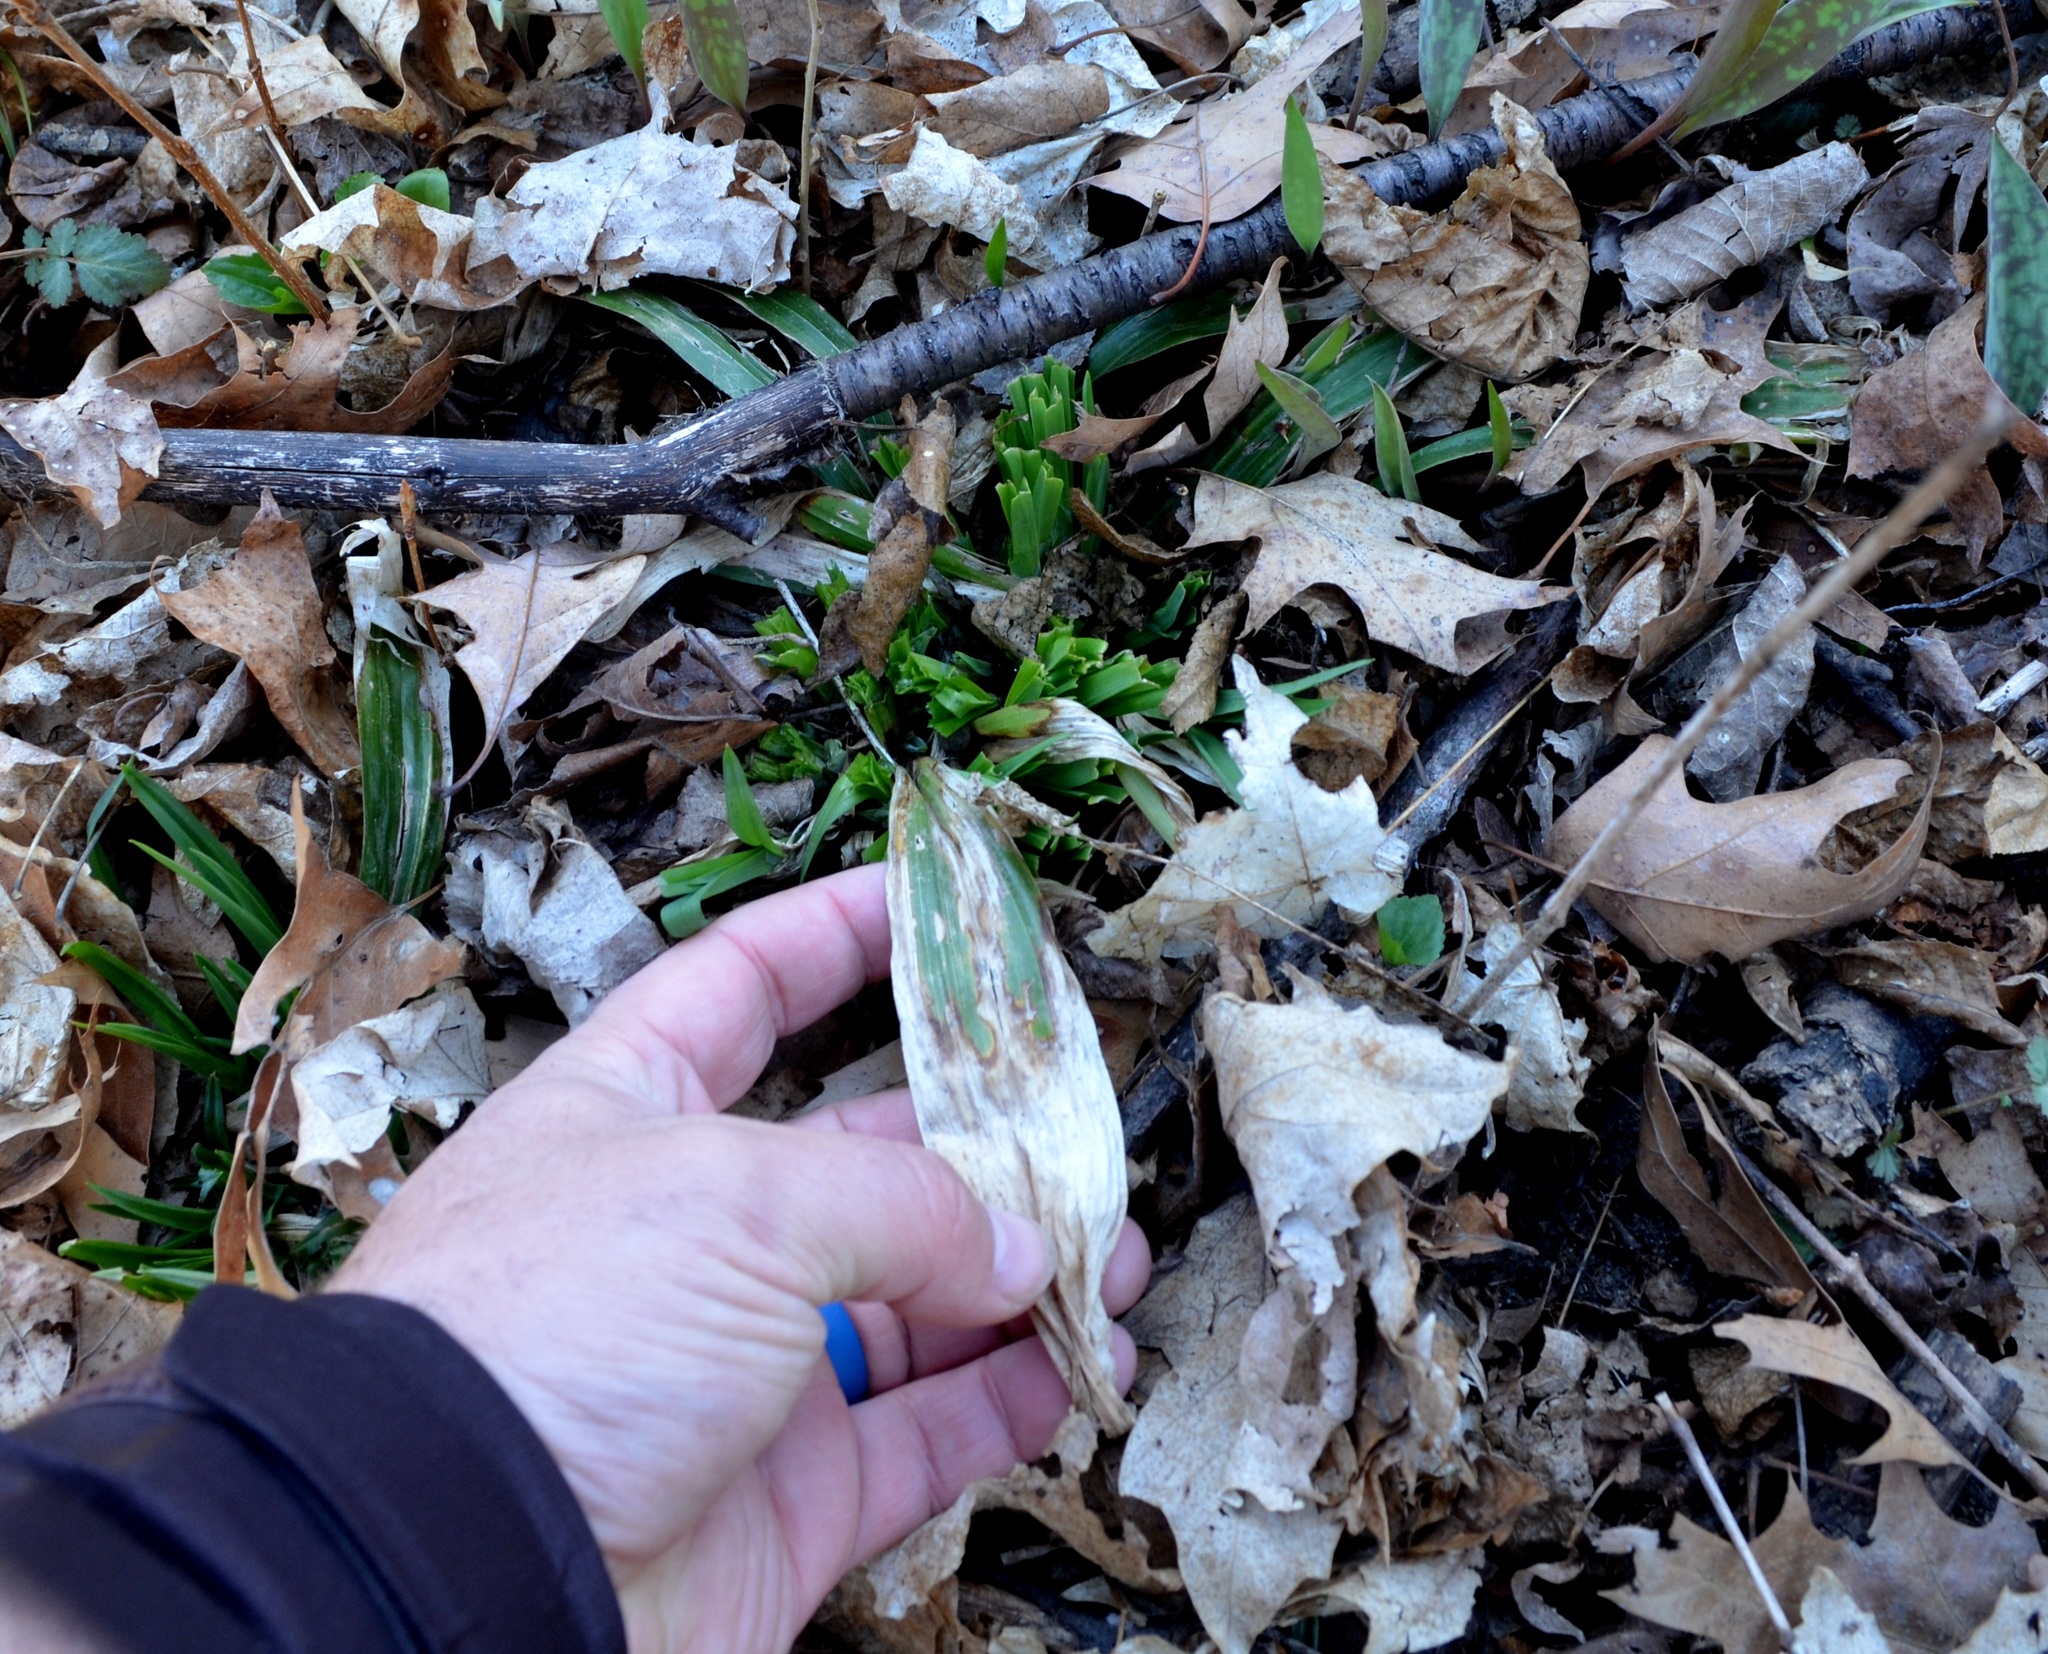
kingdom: Plantae
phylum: Tracheophyta
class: Liliopsida
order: Poales
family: Cyperaceae
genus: Carex
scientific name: Carex albursina
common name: Blunt-scale wood sedge
